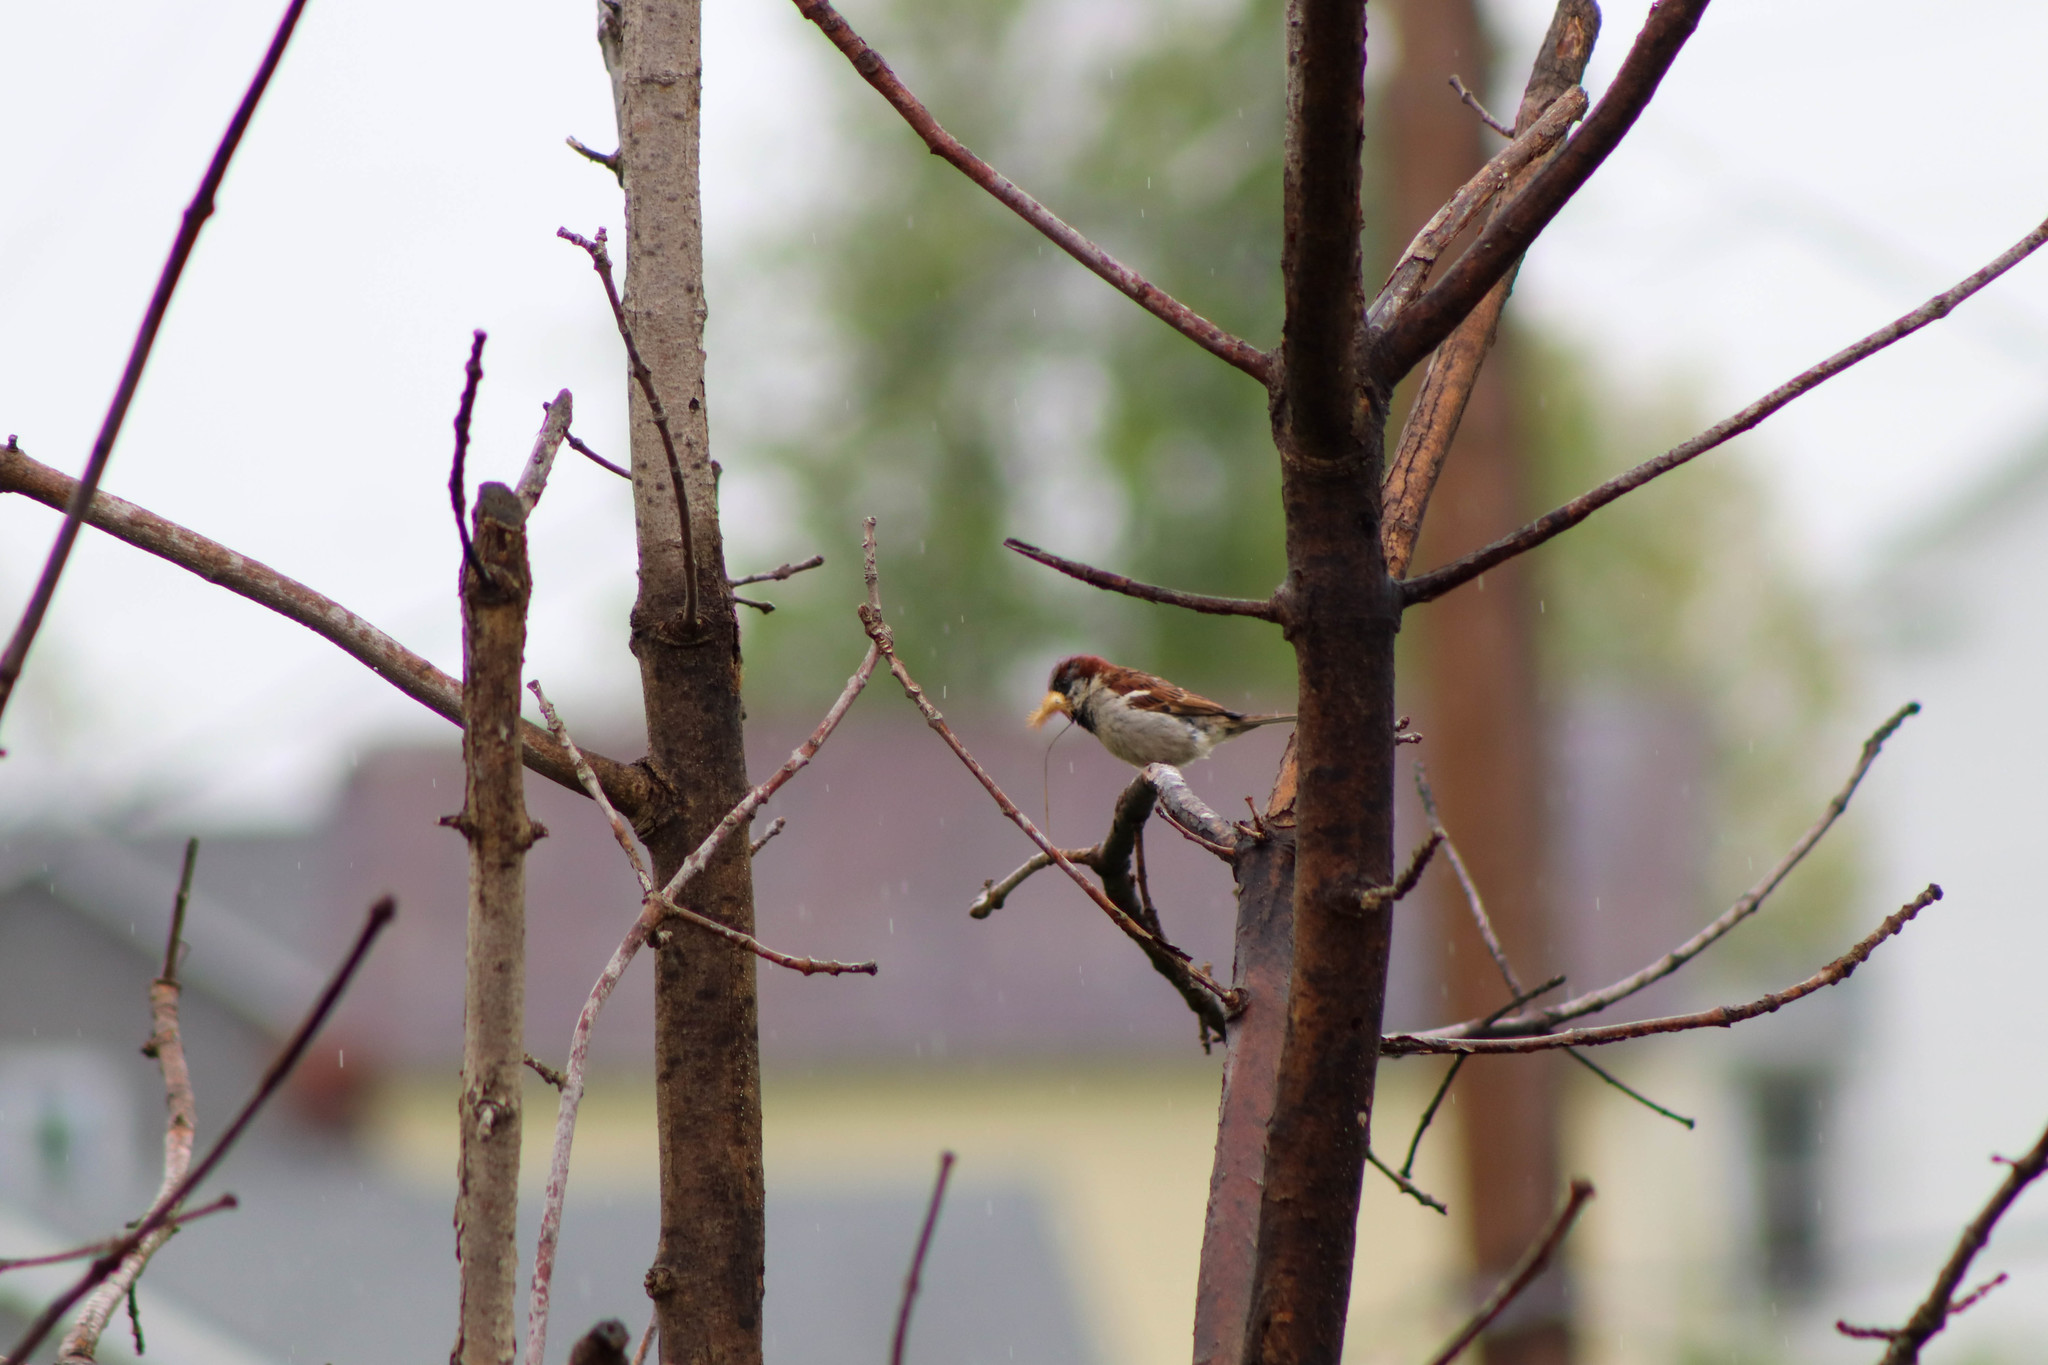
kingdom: Animalia
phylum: Chordata
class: Aves
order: Passeriformes
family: Passeridae
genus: Passer
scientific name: Passer domesticus
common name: House sparrow
